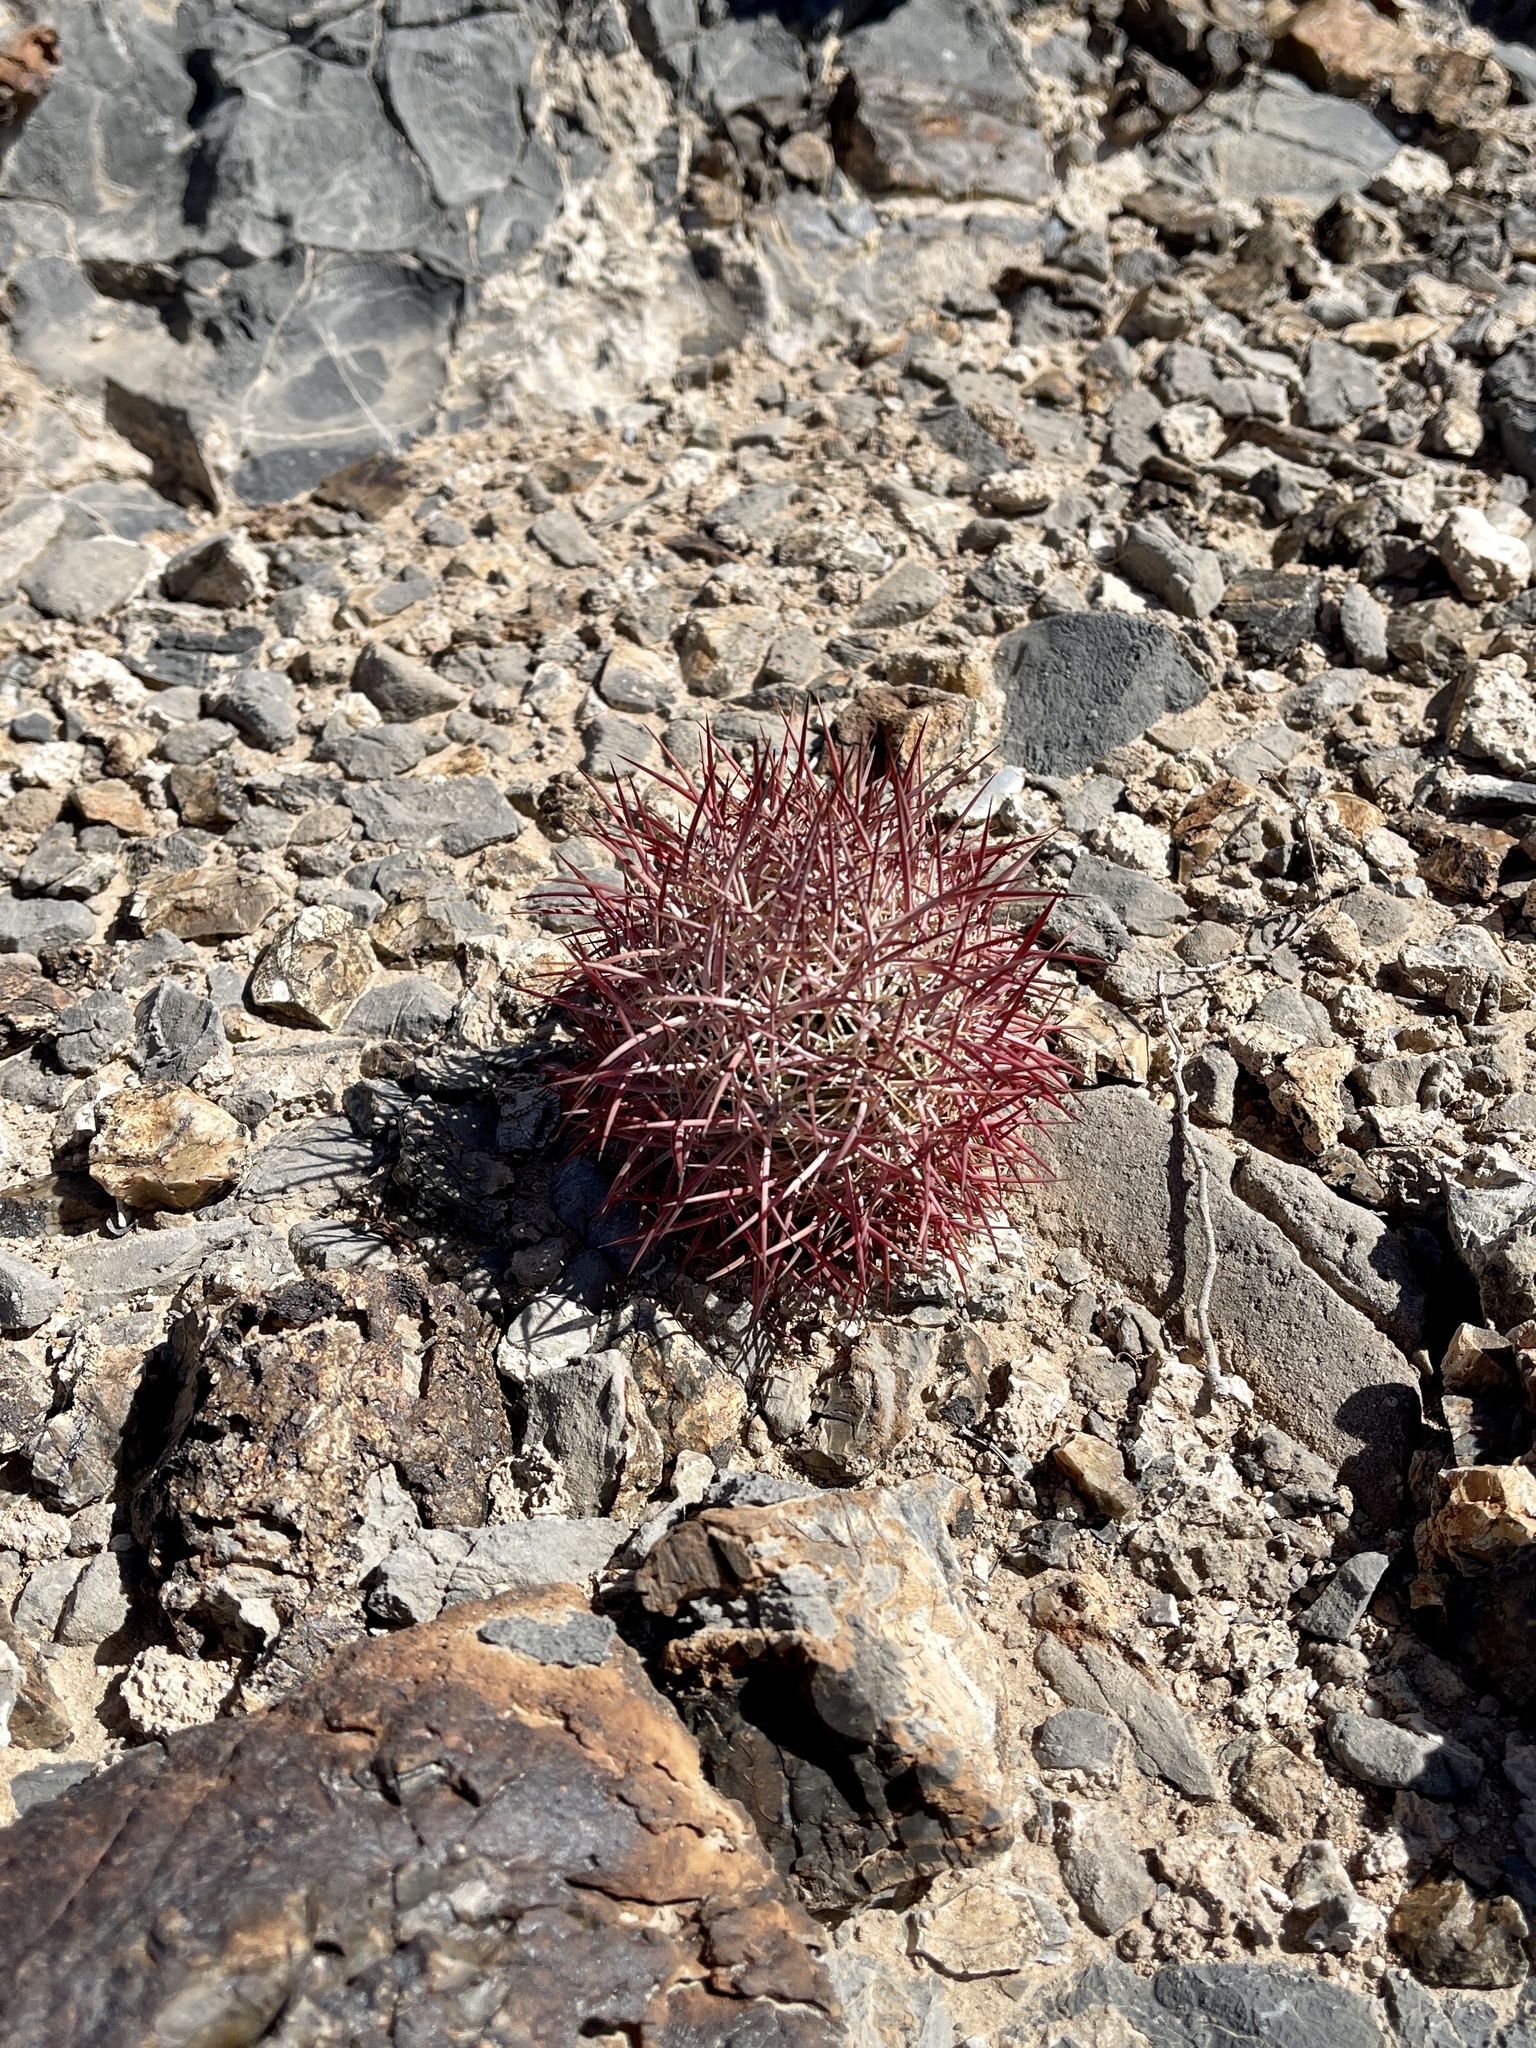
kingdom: Plantae
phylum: Tracheophyta
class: Magnoliopsida
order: Caryophyllales
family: Cactaceae
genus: Sclerocactus
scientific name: Sclerocactus johnsonii
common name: Eight-spine fishhook cactus
